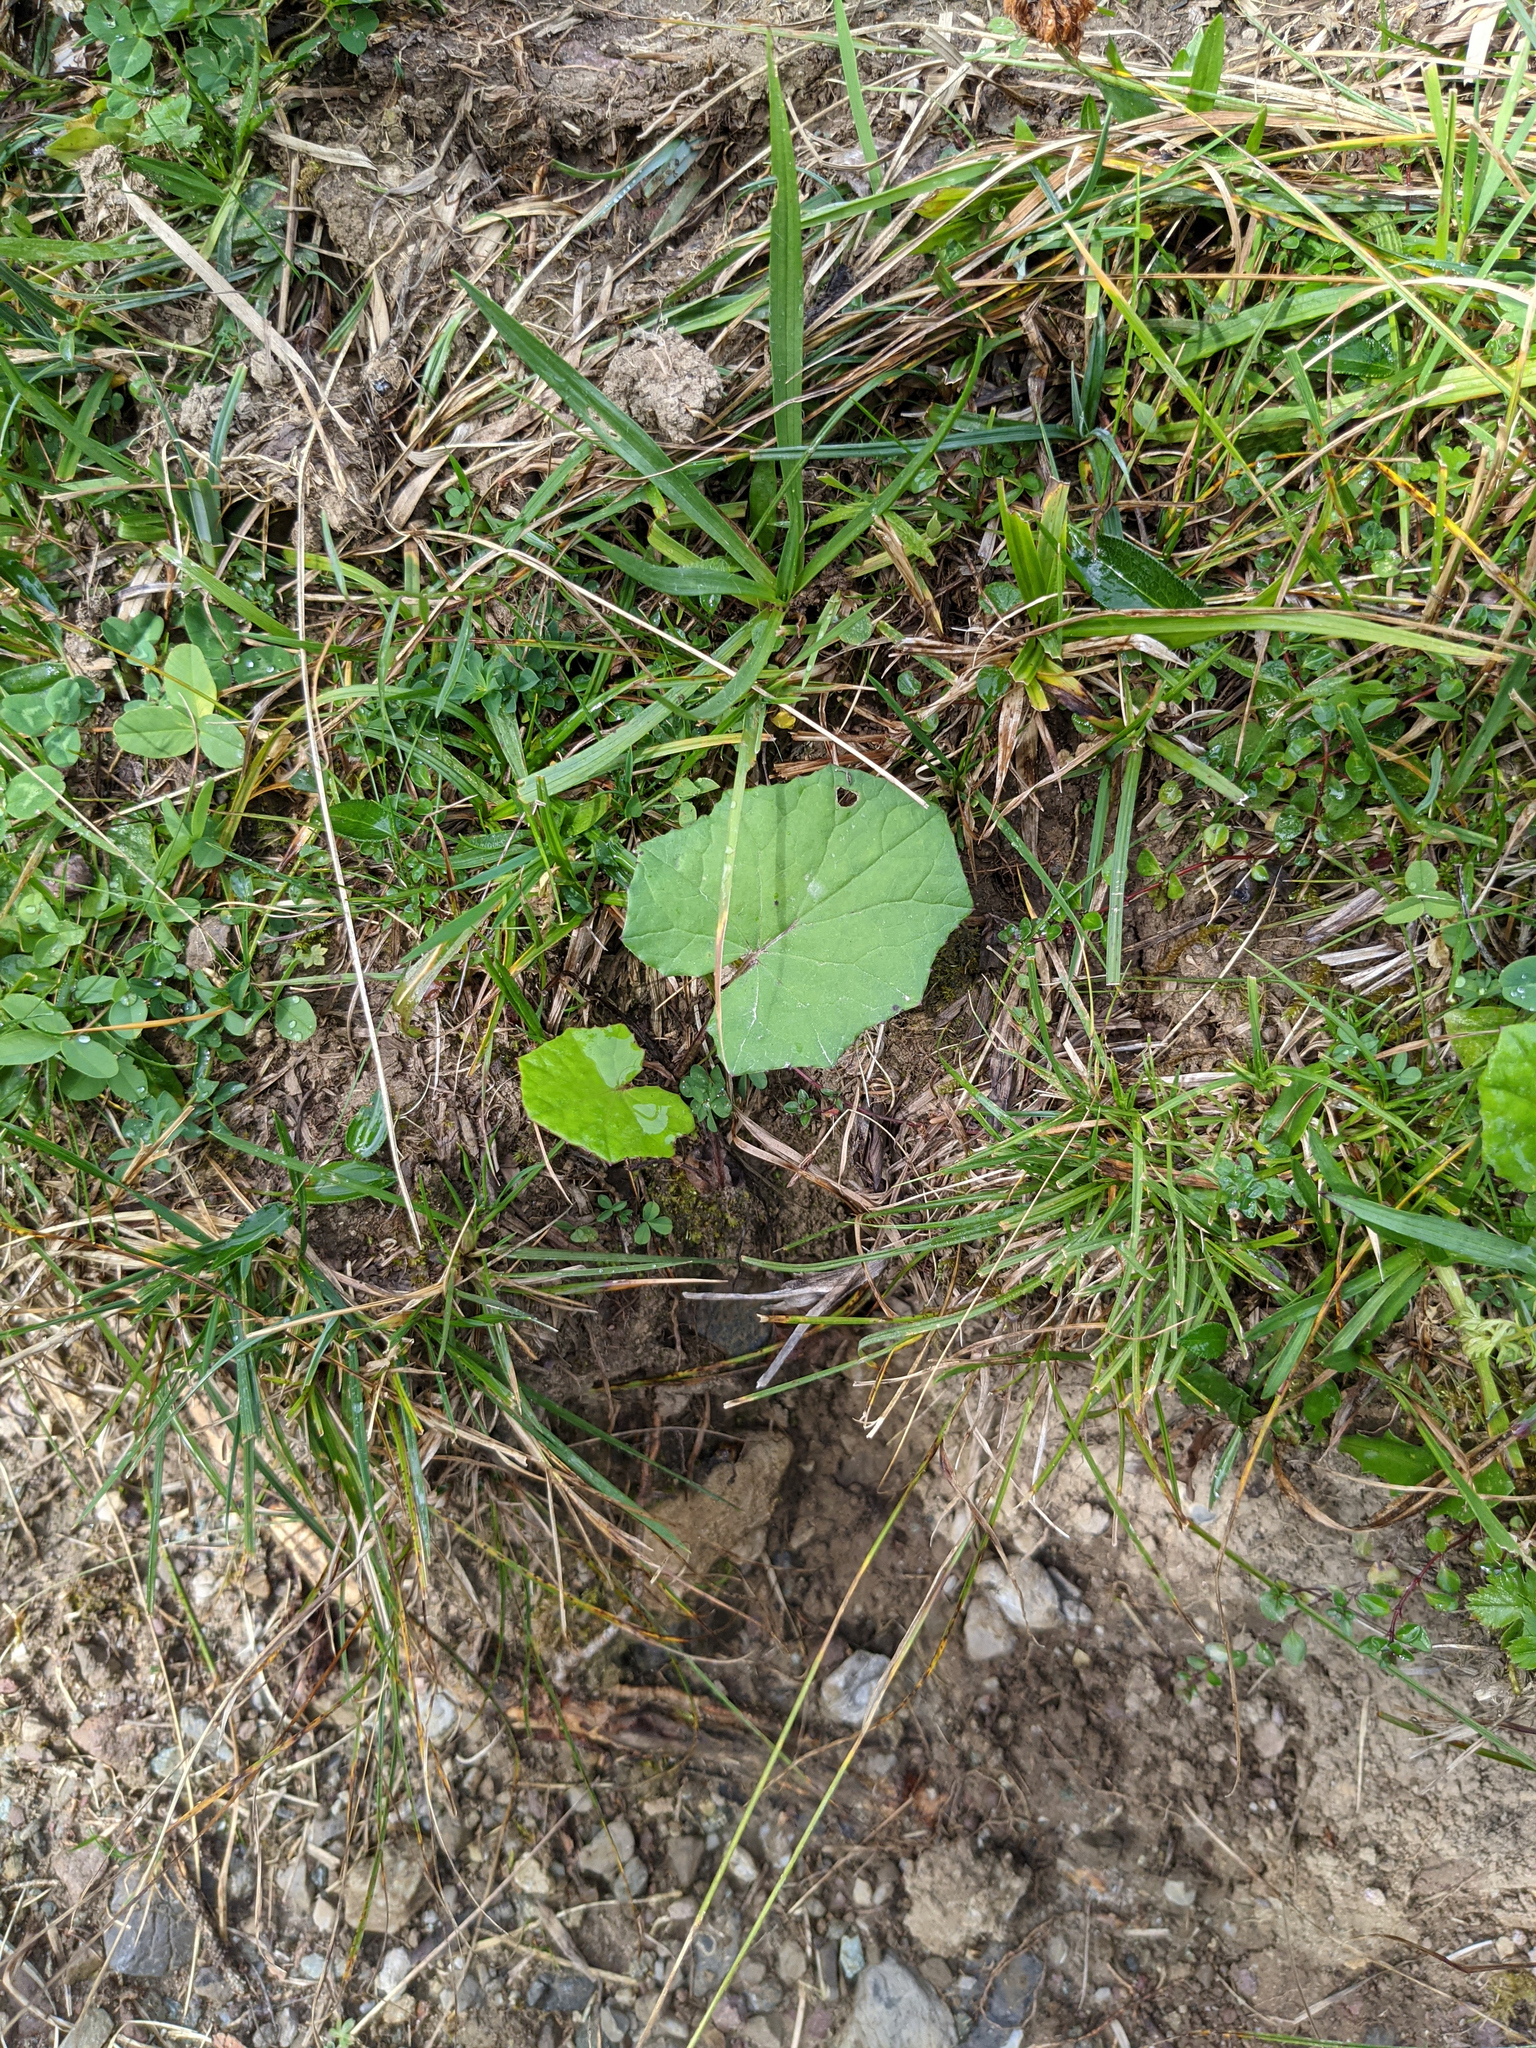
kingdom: Plantae
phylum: Tracheophyta
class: Magnoliopsida
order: Asterales
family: Asteraceae
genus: Tussilago
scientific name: Tussilago farfara
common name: Coltsfoot
